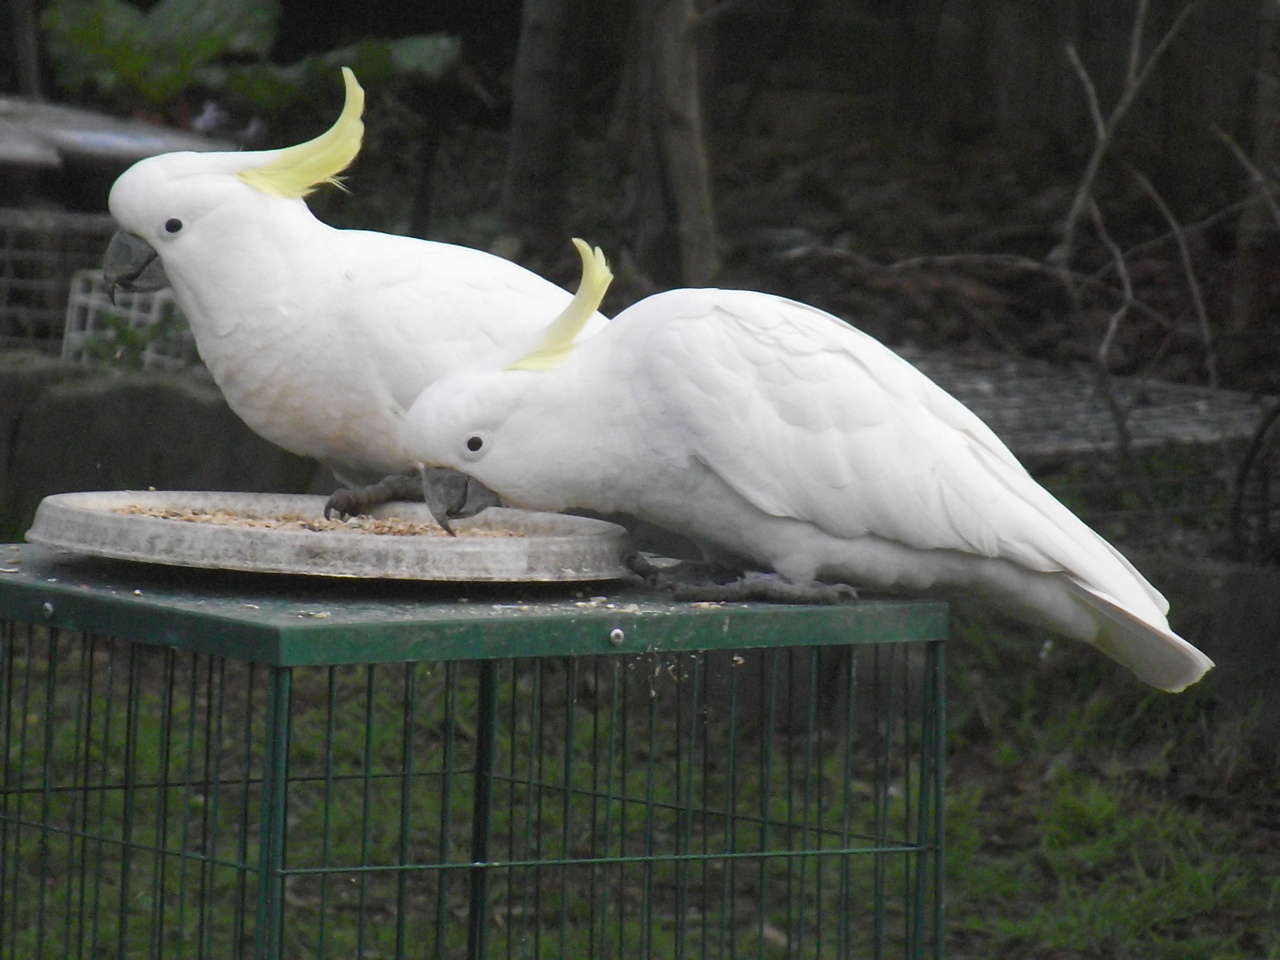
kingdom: Animalia
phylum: Chordata
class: Aves
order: Psittaciformes
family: Psittacidae
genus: Cacatua
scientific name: Cacatua galerita
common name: Sulphur-crested cockatoo
